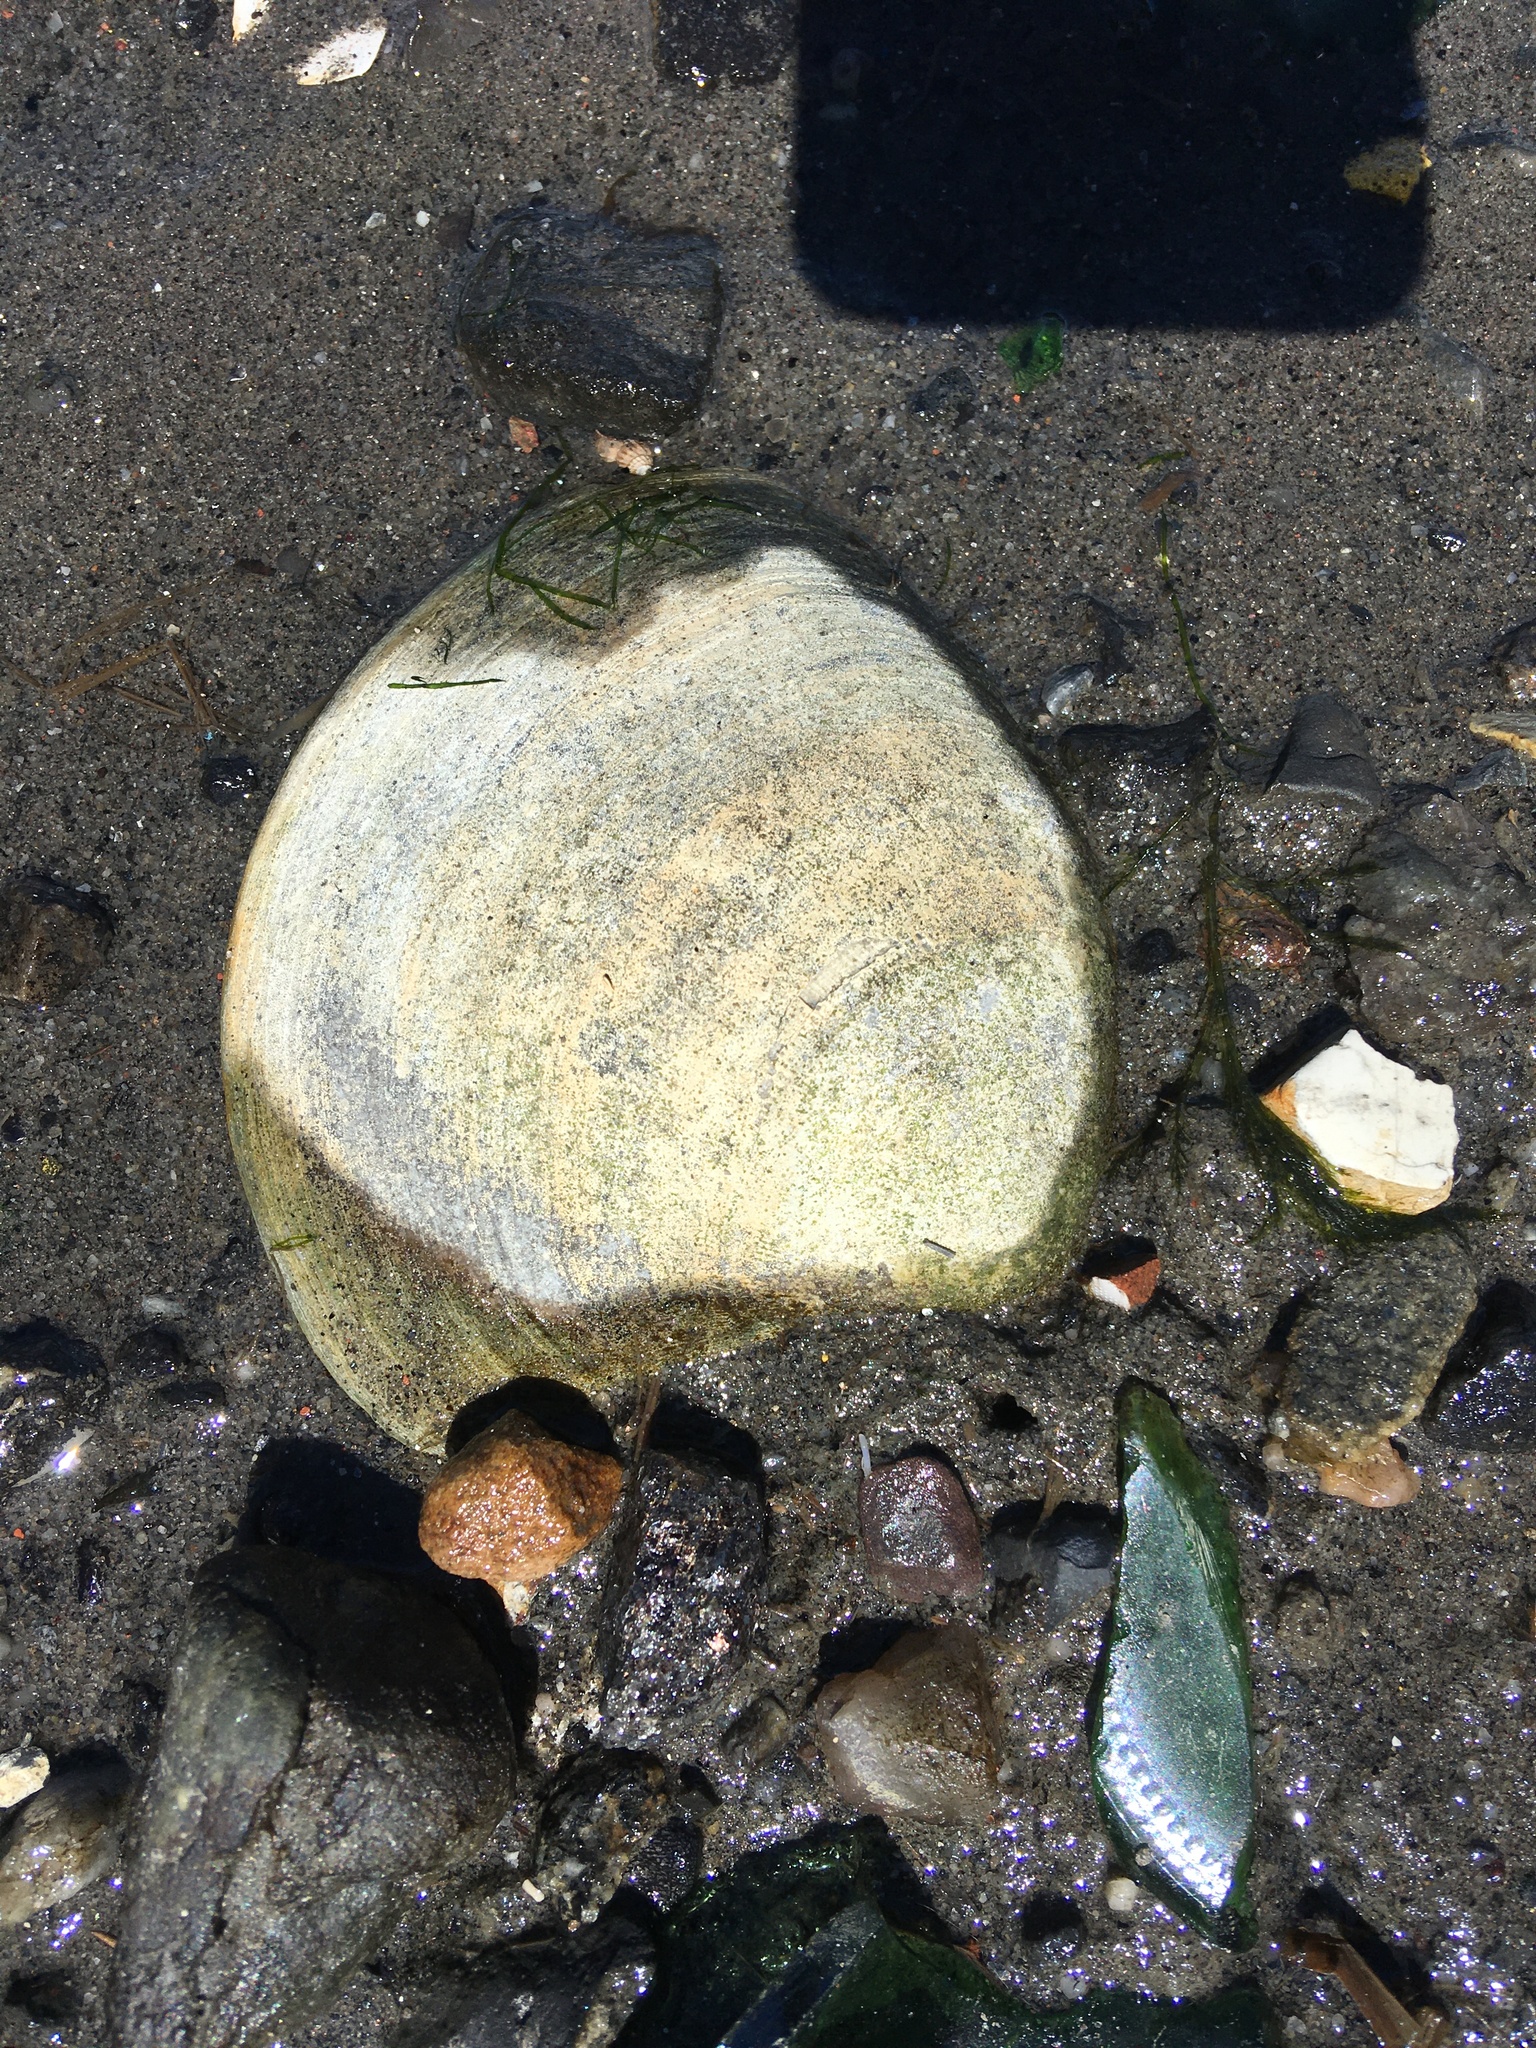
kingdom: Animalia
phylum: Mollusca
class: Bivalvia
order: Venerida
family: Veneridae
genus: Mercenaria
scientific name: Mercenaria mercenaria
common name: American hard-shelled clam
